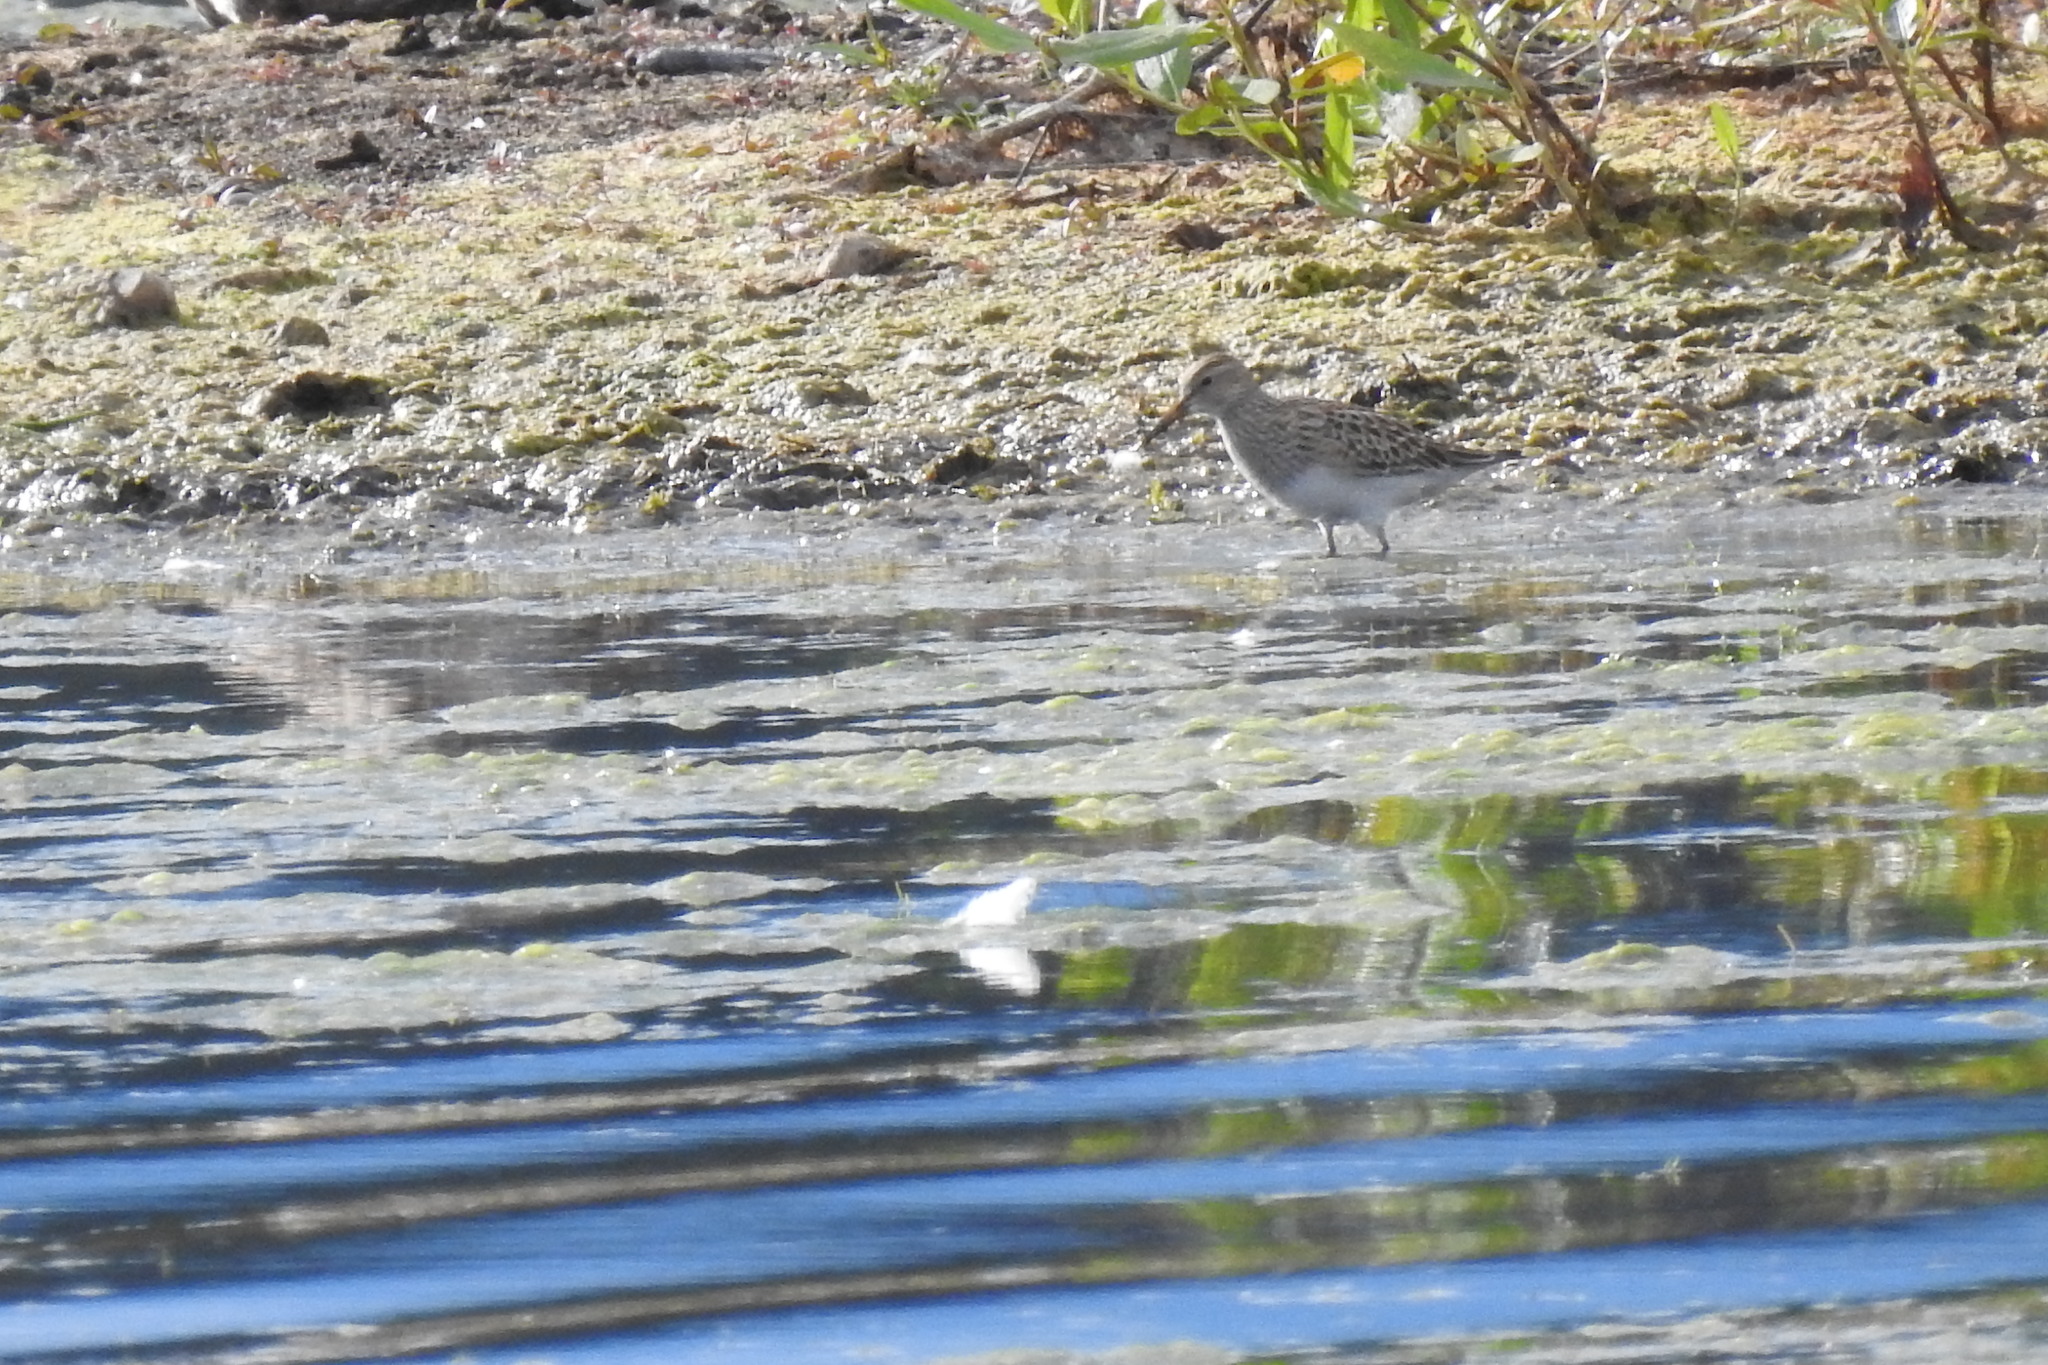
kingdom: Animalia
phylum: Chordata
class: Aves
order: Charadriiformes
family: Scolopacidae
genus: Calidris
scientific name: Calidris melanotos
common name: Pectoral sandpiper
